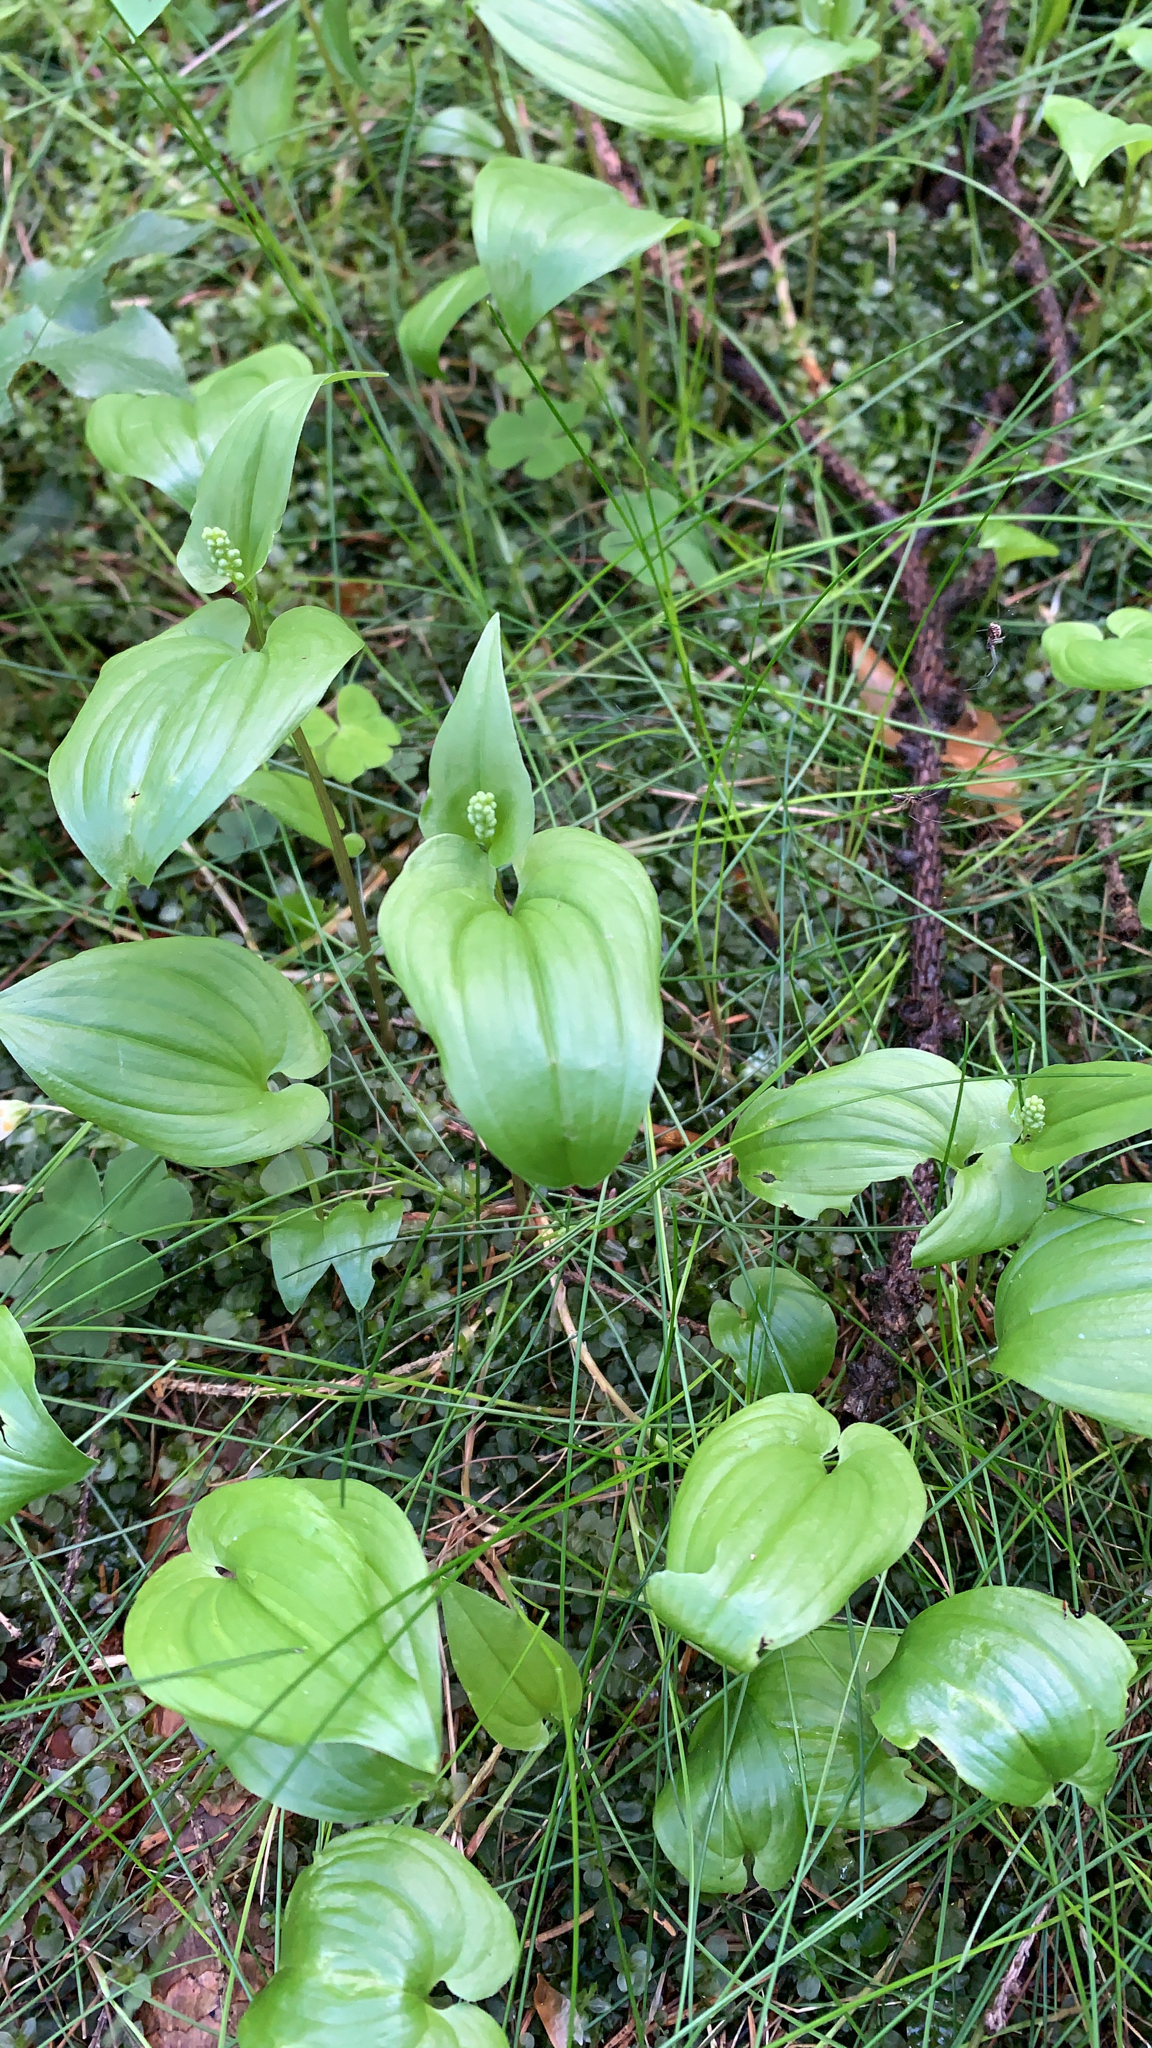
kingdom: Plantae
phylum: Tracheophyta
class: Liliopsida
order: Asparagales
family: Asparagaceae
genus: Maianthemum
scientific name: Maianthemum bifolium
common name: May lily
